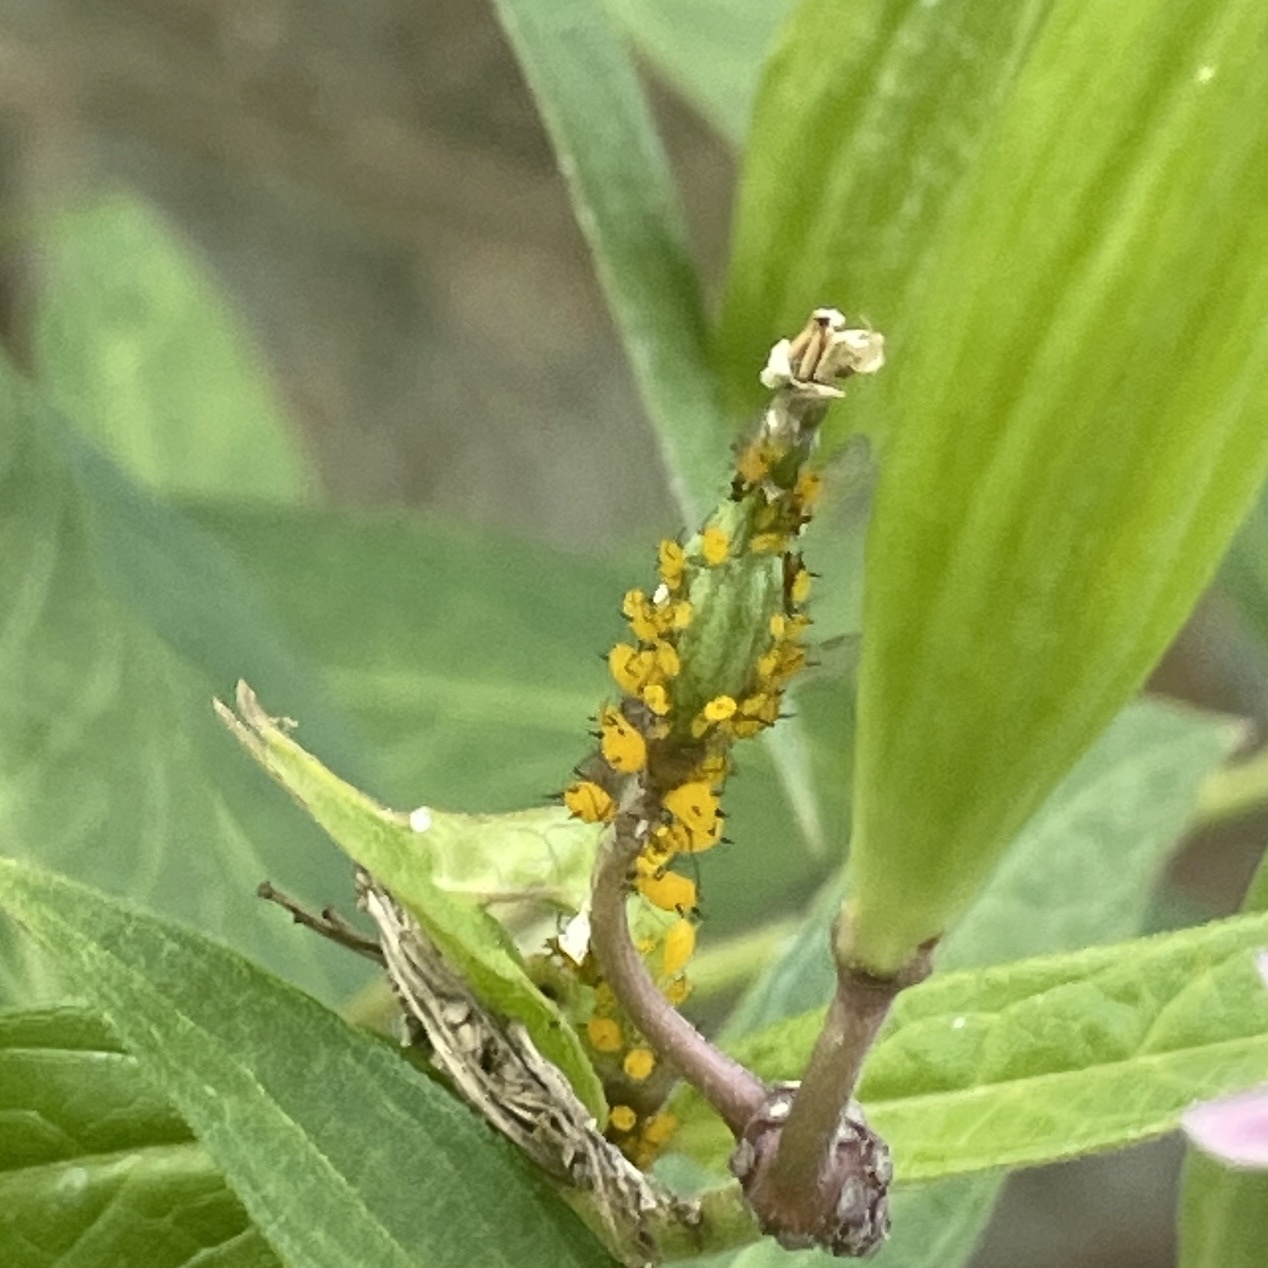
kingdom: Animalia
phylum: Arthropoda
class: Insecta
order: Hemiptera
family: Aphididae
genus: Aphis
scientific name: Aphis nerii
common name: Oleander aphid
